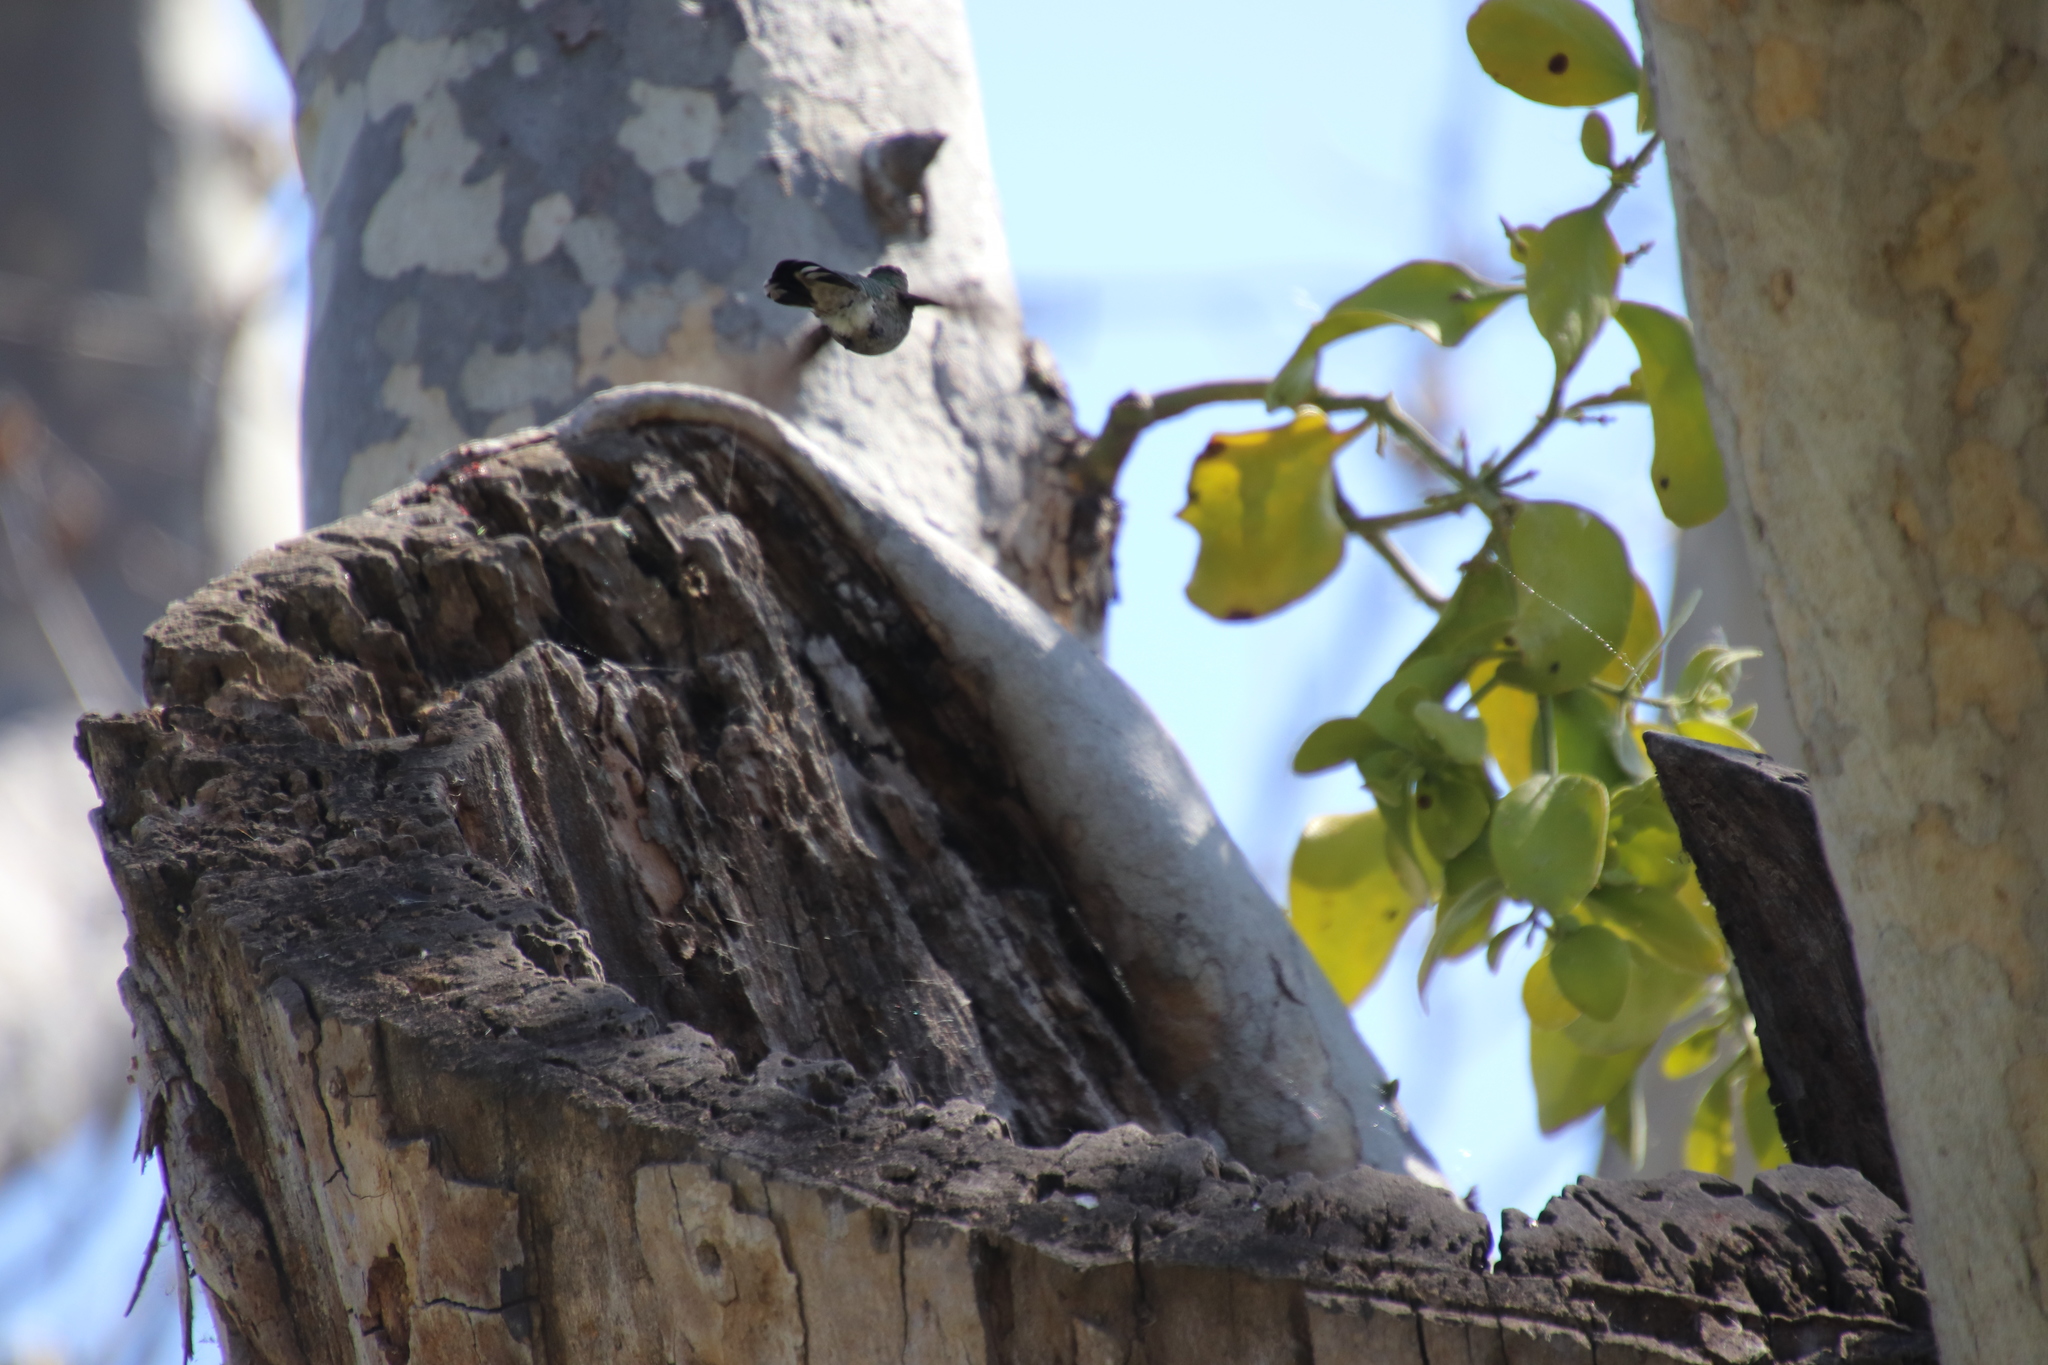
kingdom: Animalia
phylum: Chordata
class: Aves
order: Apodiformes
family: Trochilidae
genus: Calypte
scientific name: Calypte anna
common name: Anna's hummingbird
